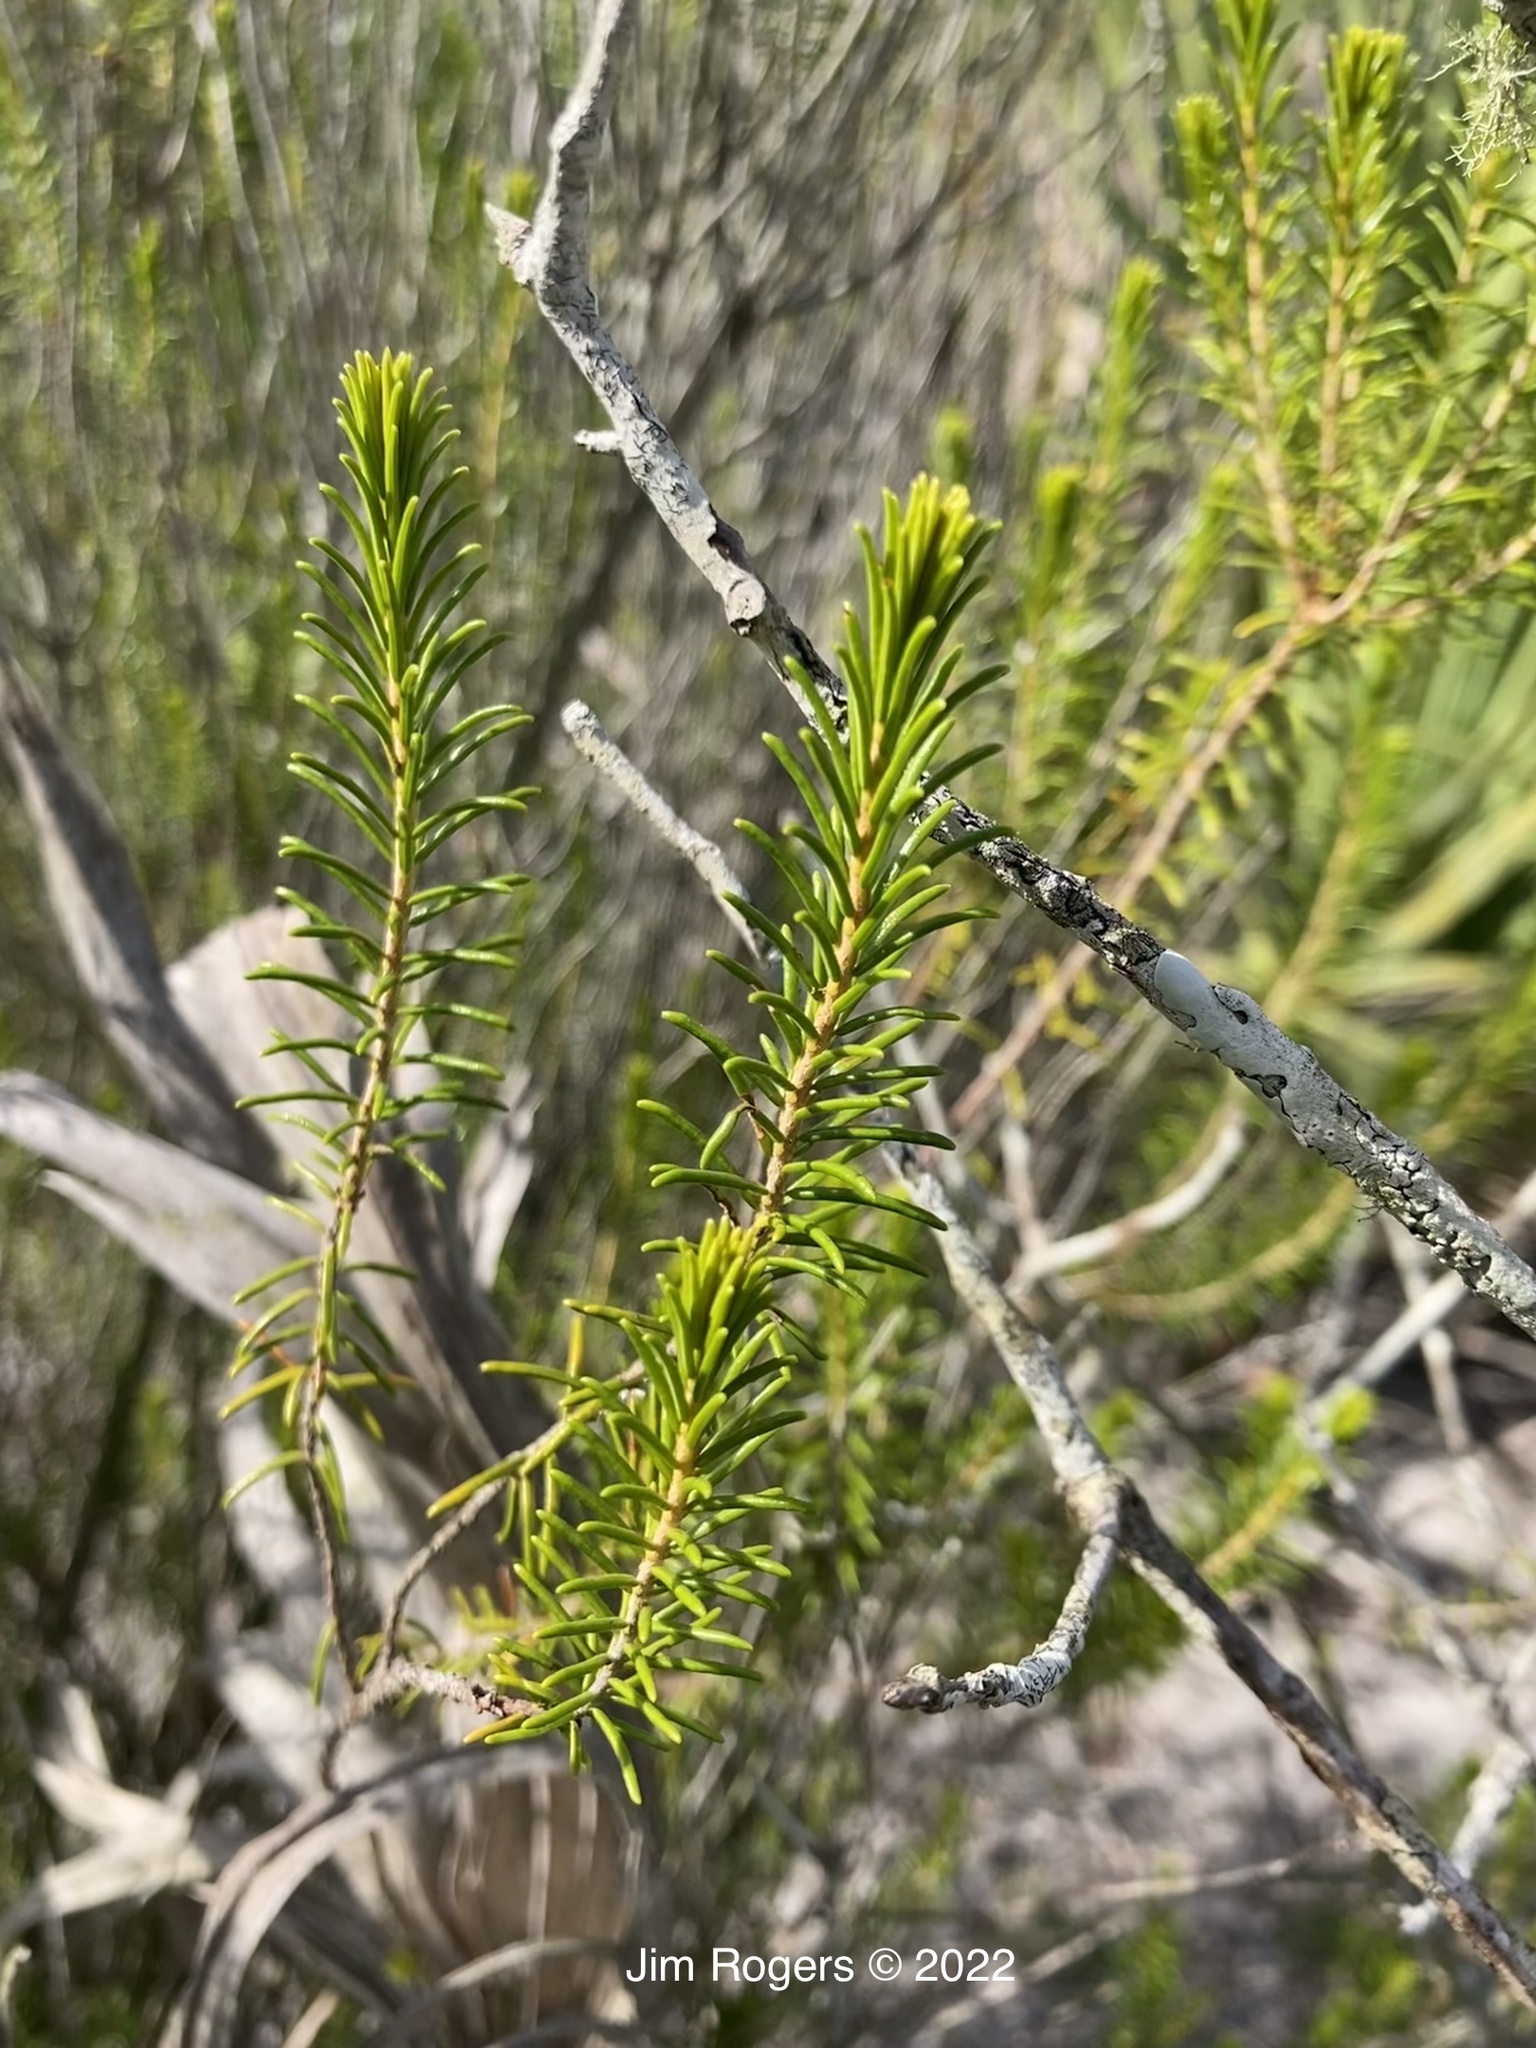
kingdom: Plantae
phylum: Tracheophyta
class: Magnoliopsida
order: Ericales
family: Ericaceae
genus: Ceratiola
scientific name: Ceratiola ericoides
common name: Sandhill-rosemary
